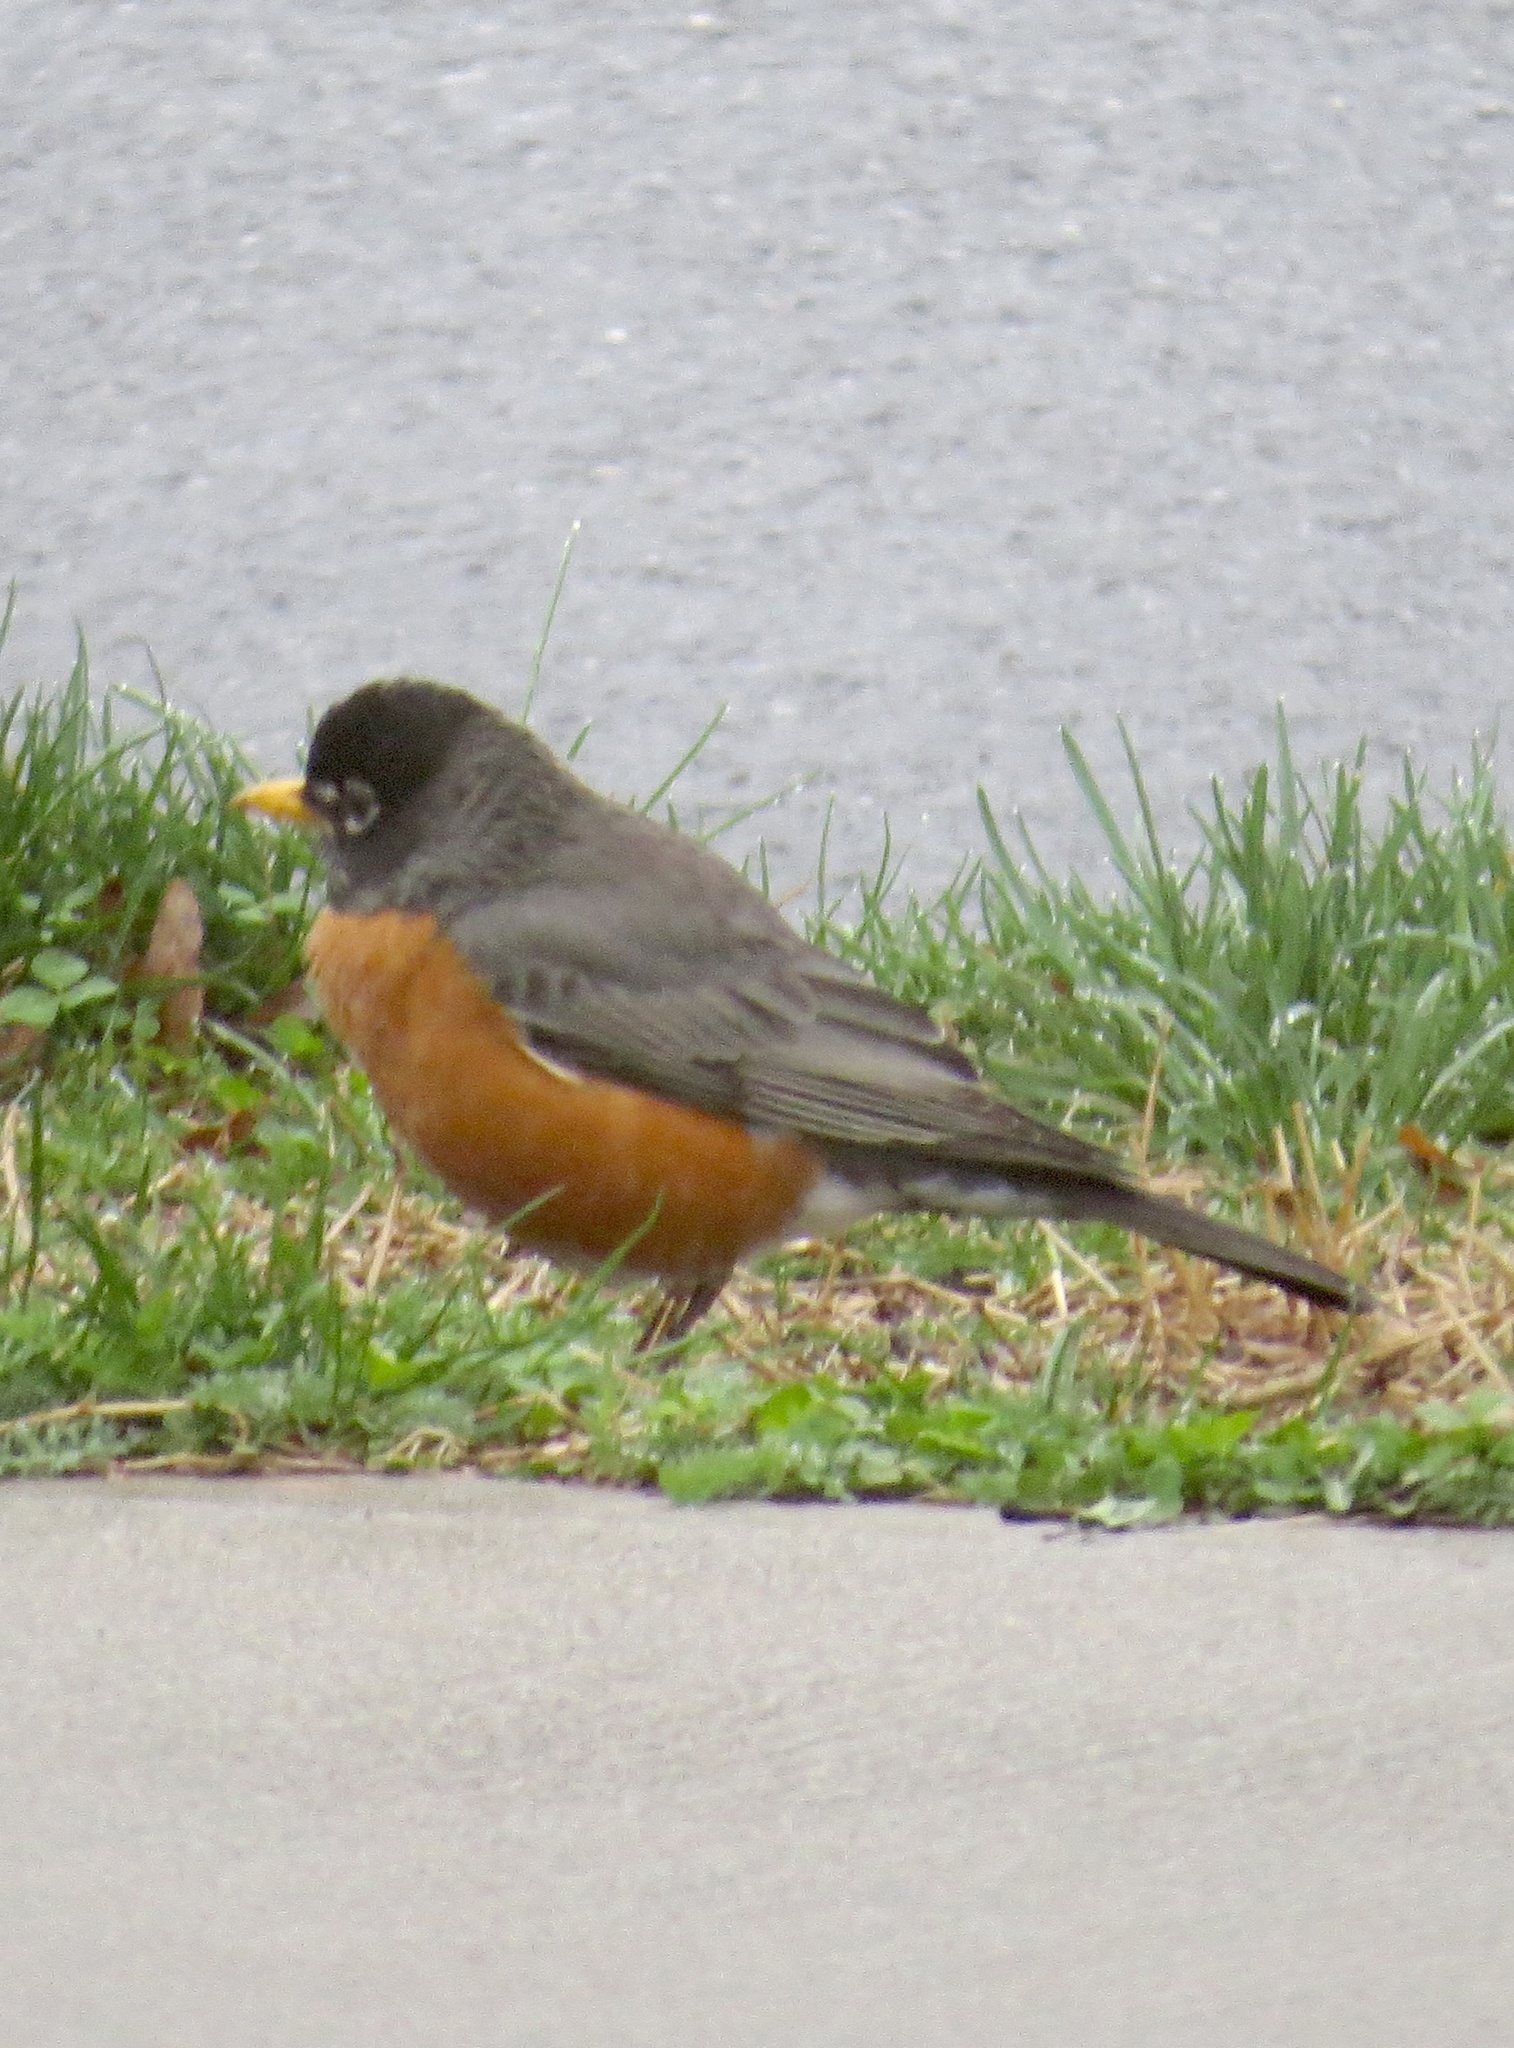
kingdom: Animalia
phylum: Chordata
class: Aves
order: Passeriformes
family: Turdidae
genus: Turdus
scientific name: Turdus migratorius
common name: American robin
